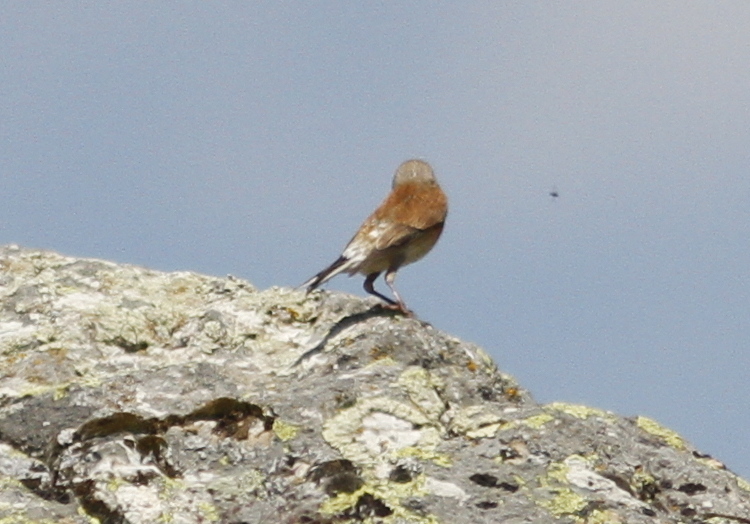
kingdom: Animalia
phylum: Chordata
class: Aves
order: Passeriformes
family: Fringillidae
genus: Linaria
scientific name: Linaria cannabina
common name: Common linnet
